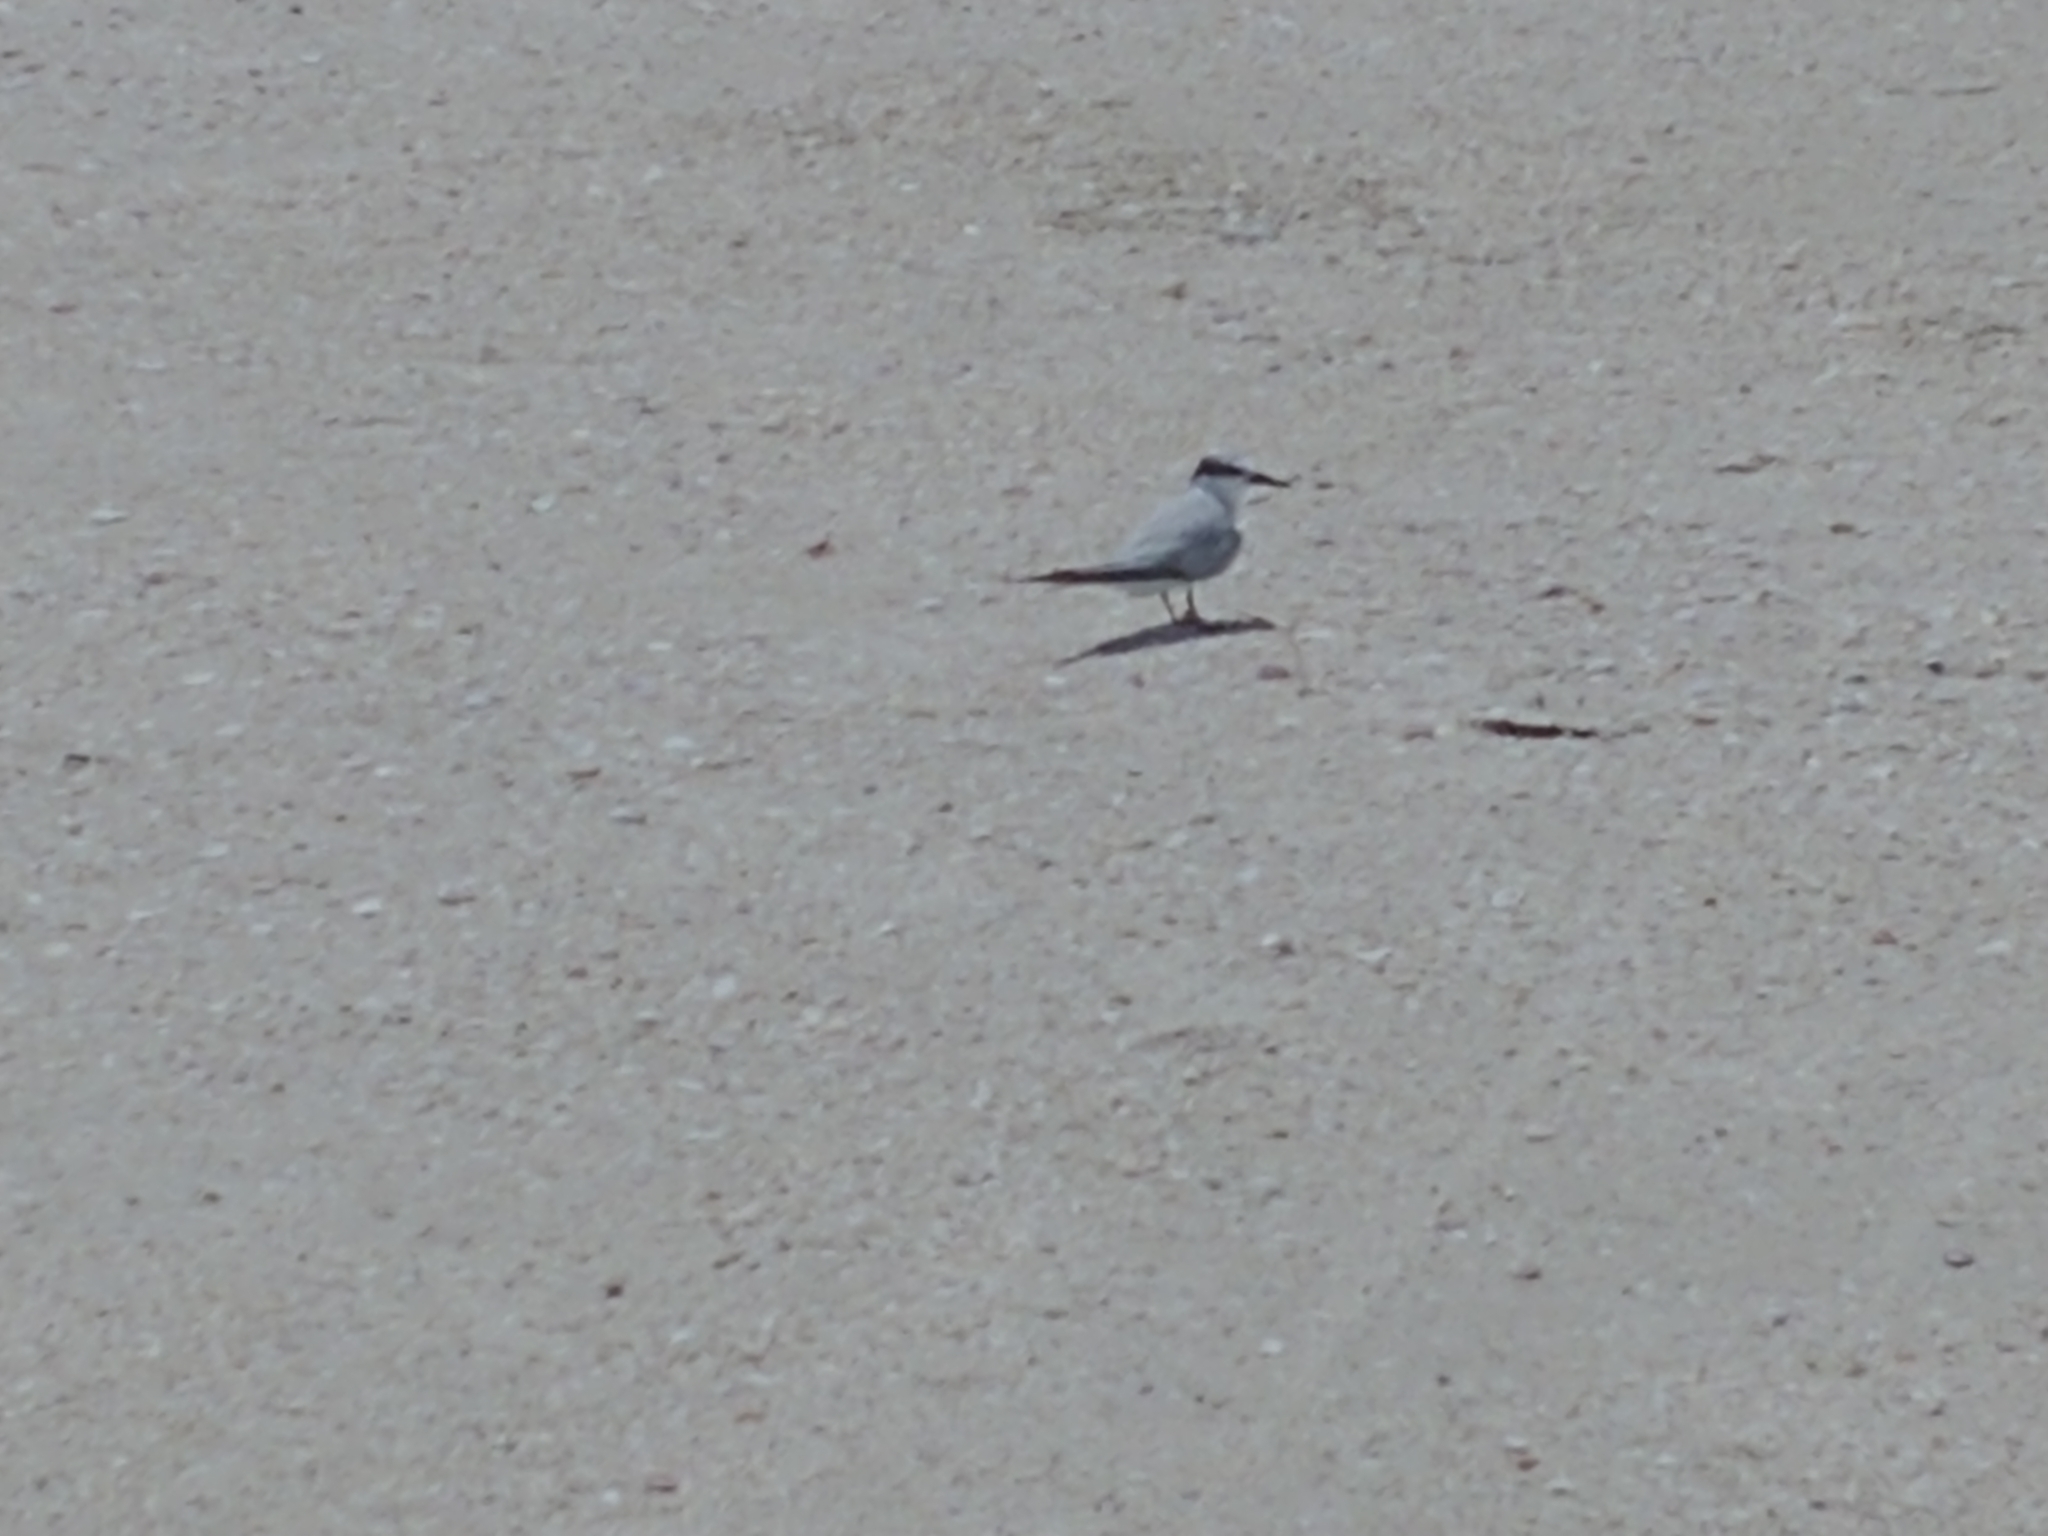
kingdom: Animalia
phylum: Chordata
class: Aves
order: Charadriiformes
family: Laridae
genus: Sternula
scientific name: Sternula antillarum
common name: Least tern
